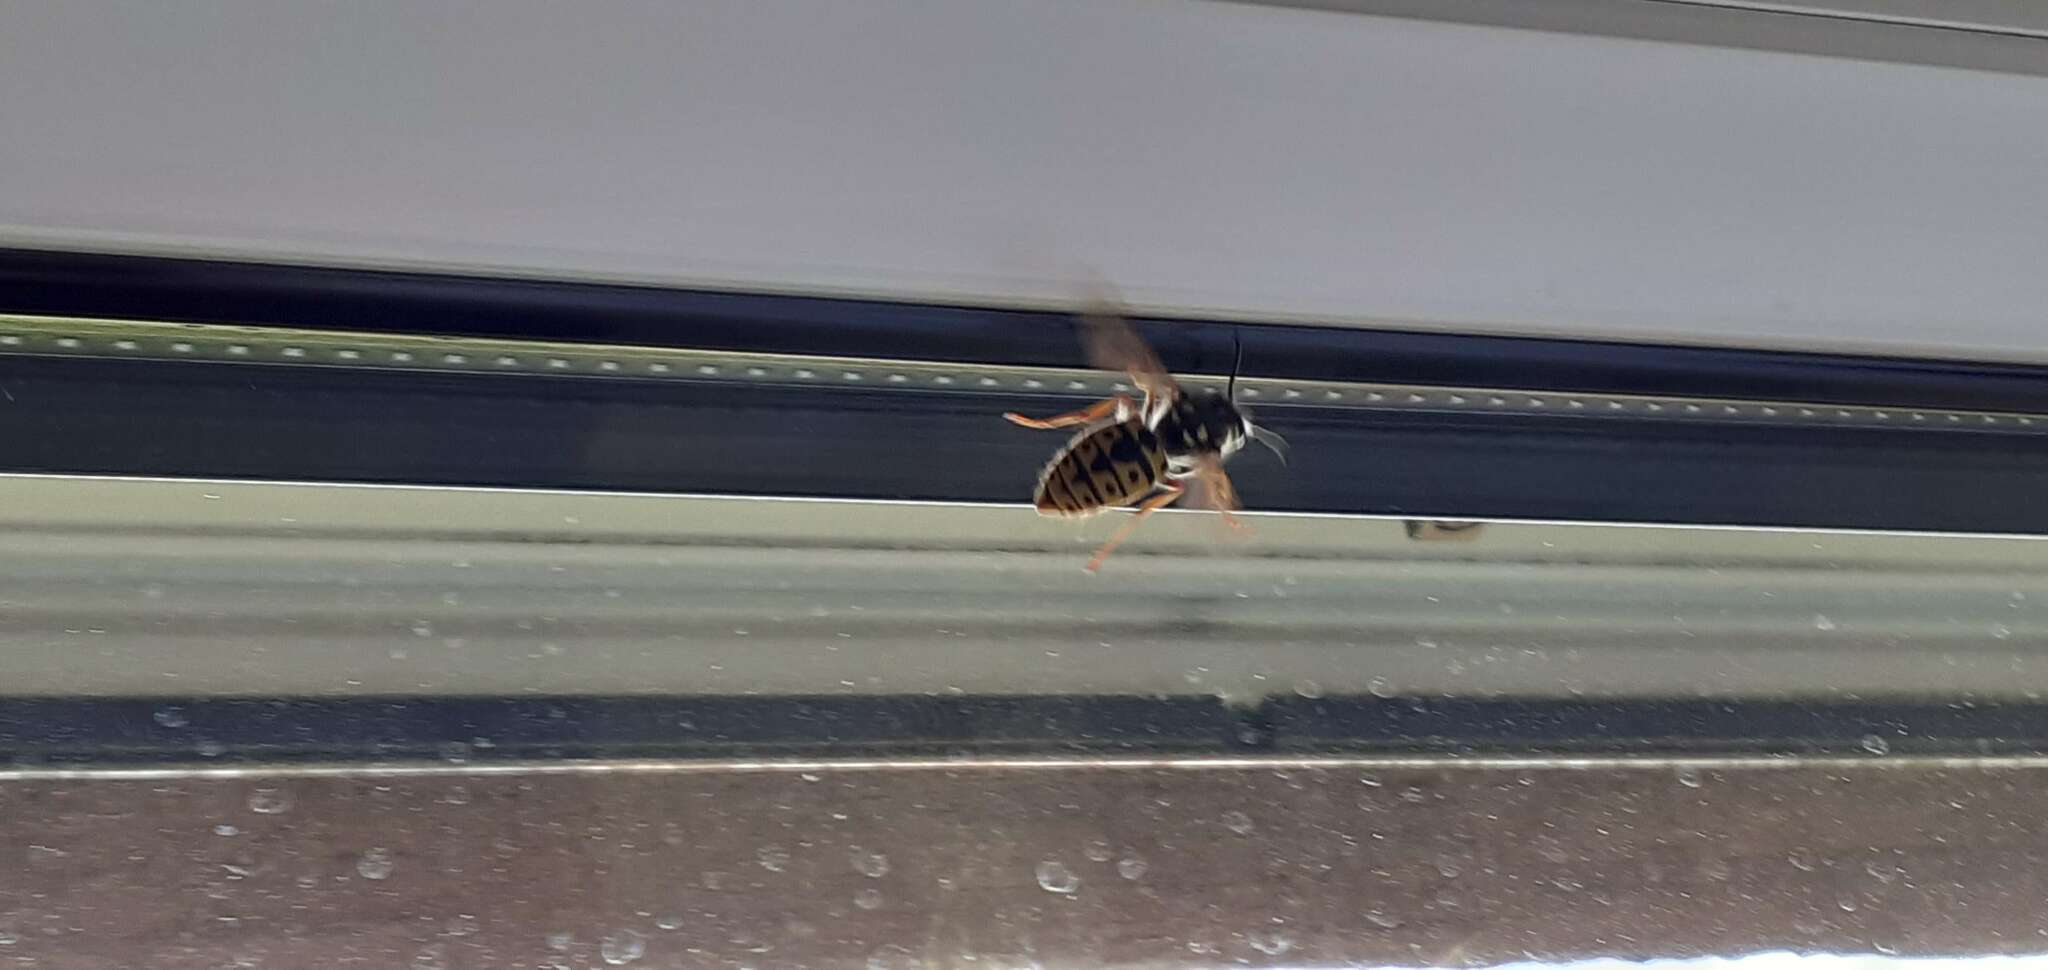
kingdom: Animalia
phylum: Arthropoda
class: Insecta
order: Hymenoptera
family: Vespidae
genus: Vespula
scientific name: Vespula germanica
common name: German wasp
